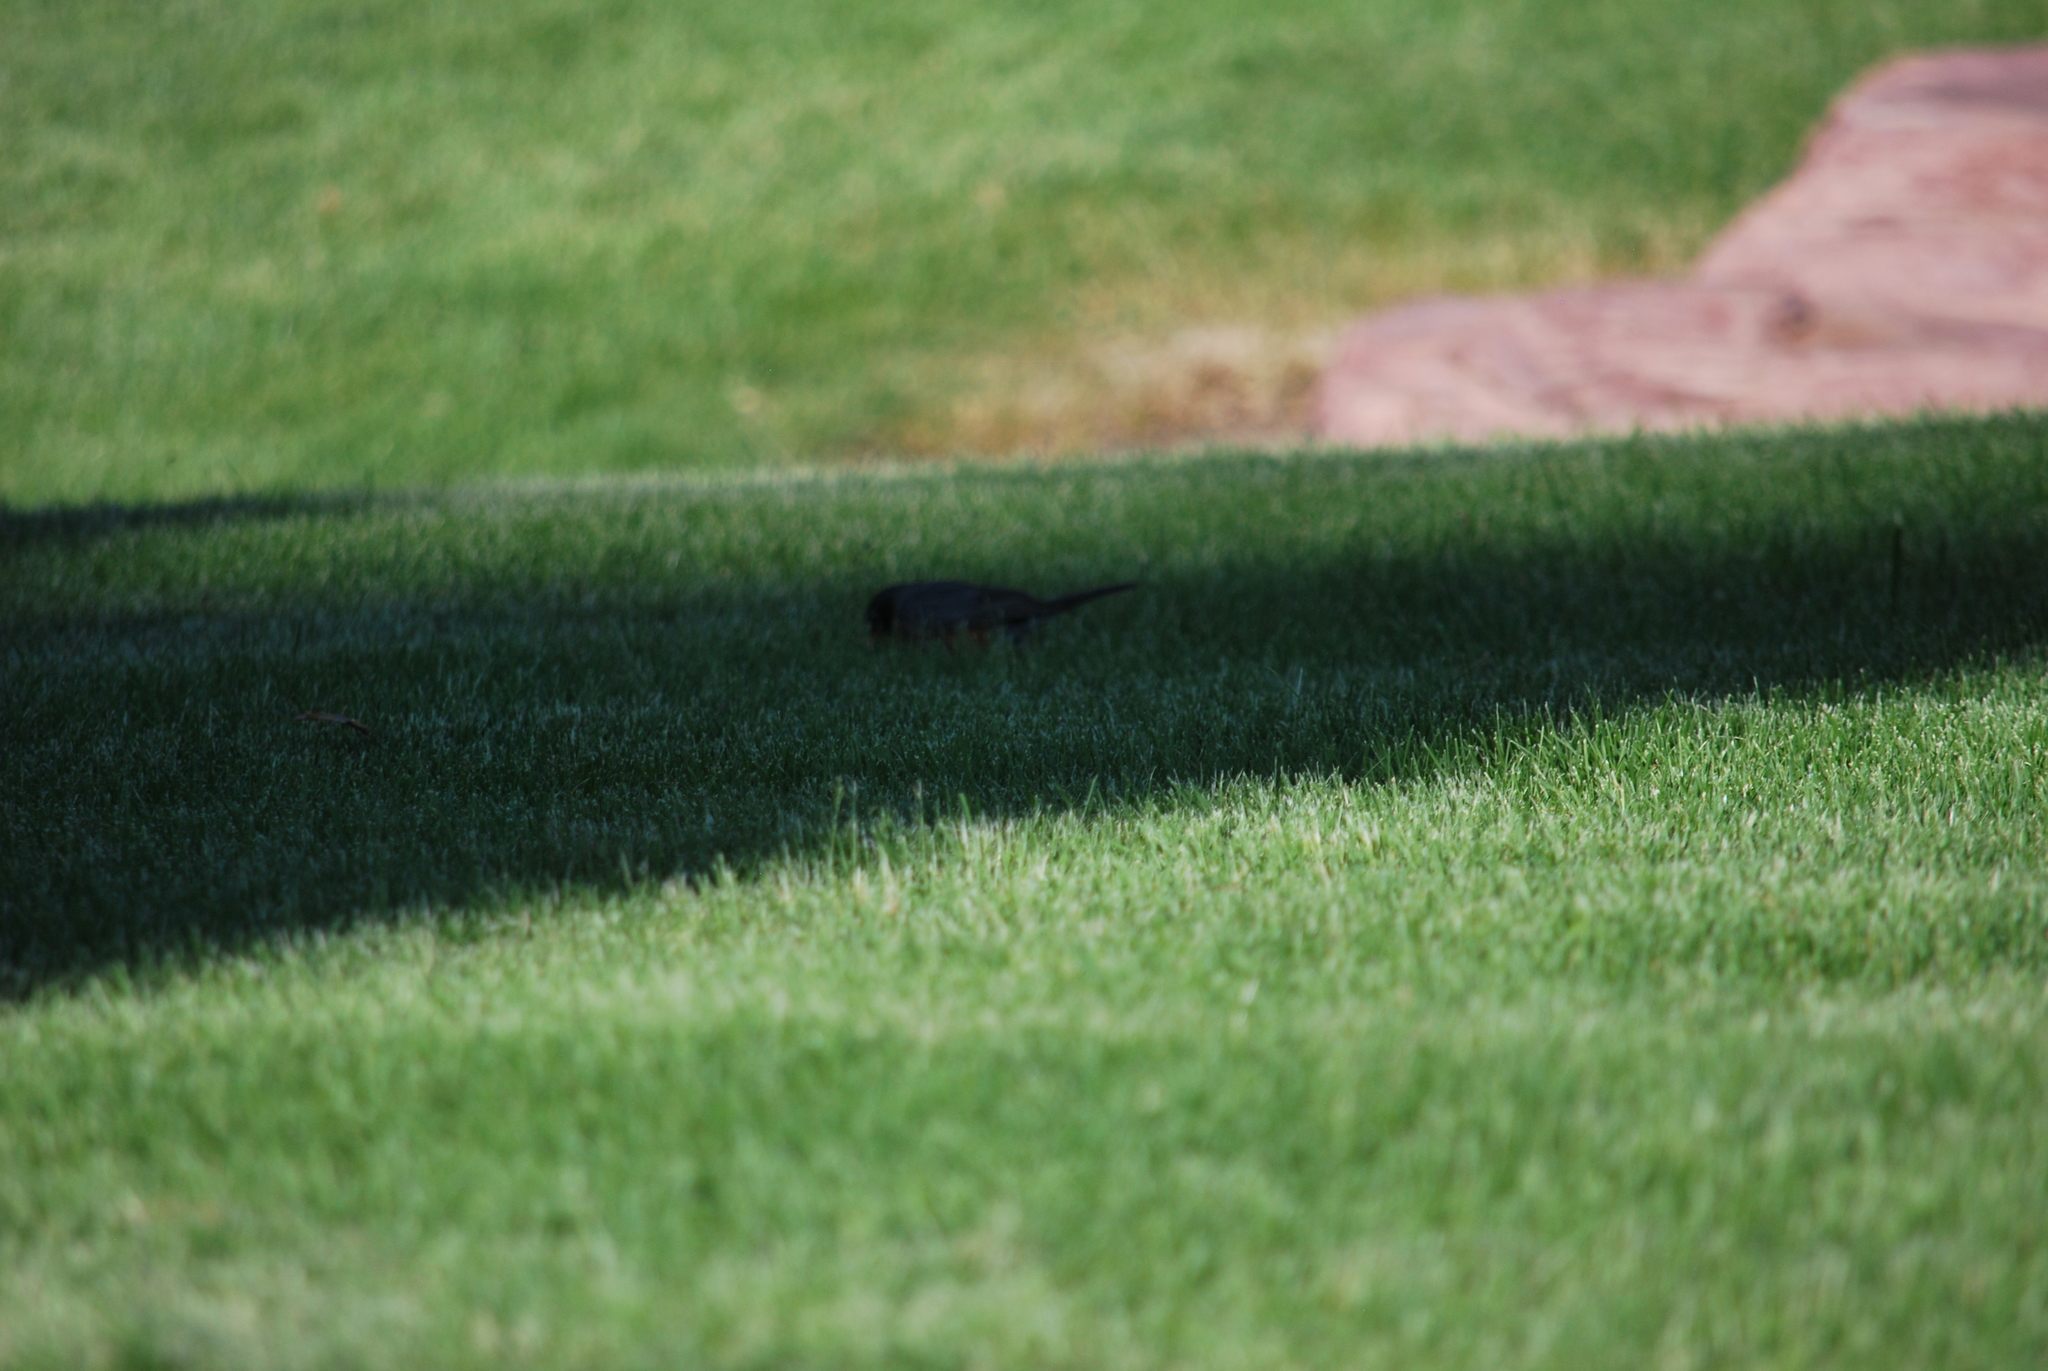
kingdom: Animalia
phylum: Chordata
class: Aves
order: Passeriformes
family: Turdidae
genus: Turdus
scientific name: Turdus migratorius
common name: American robin
